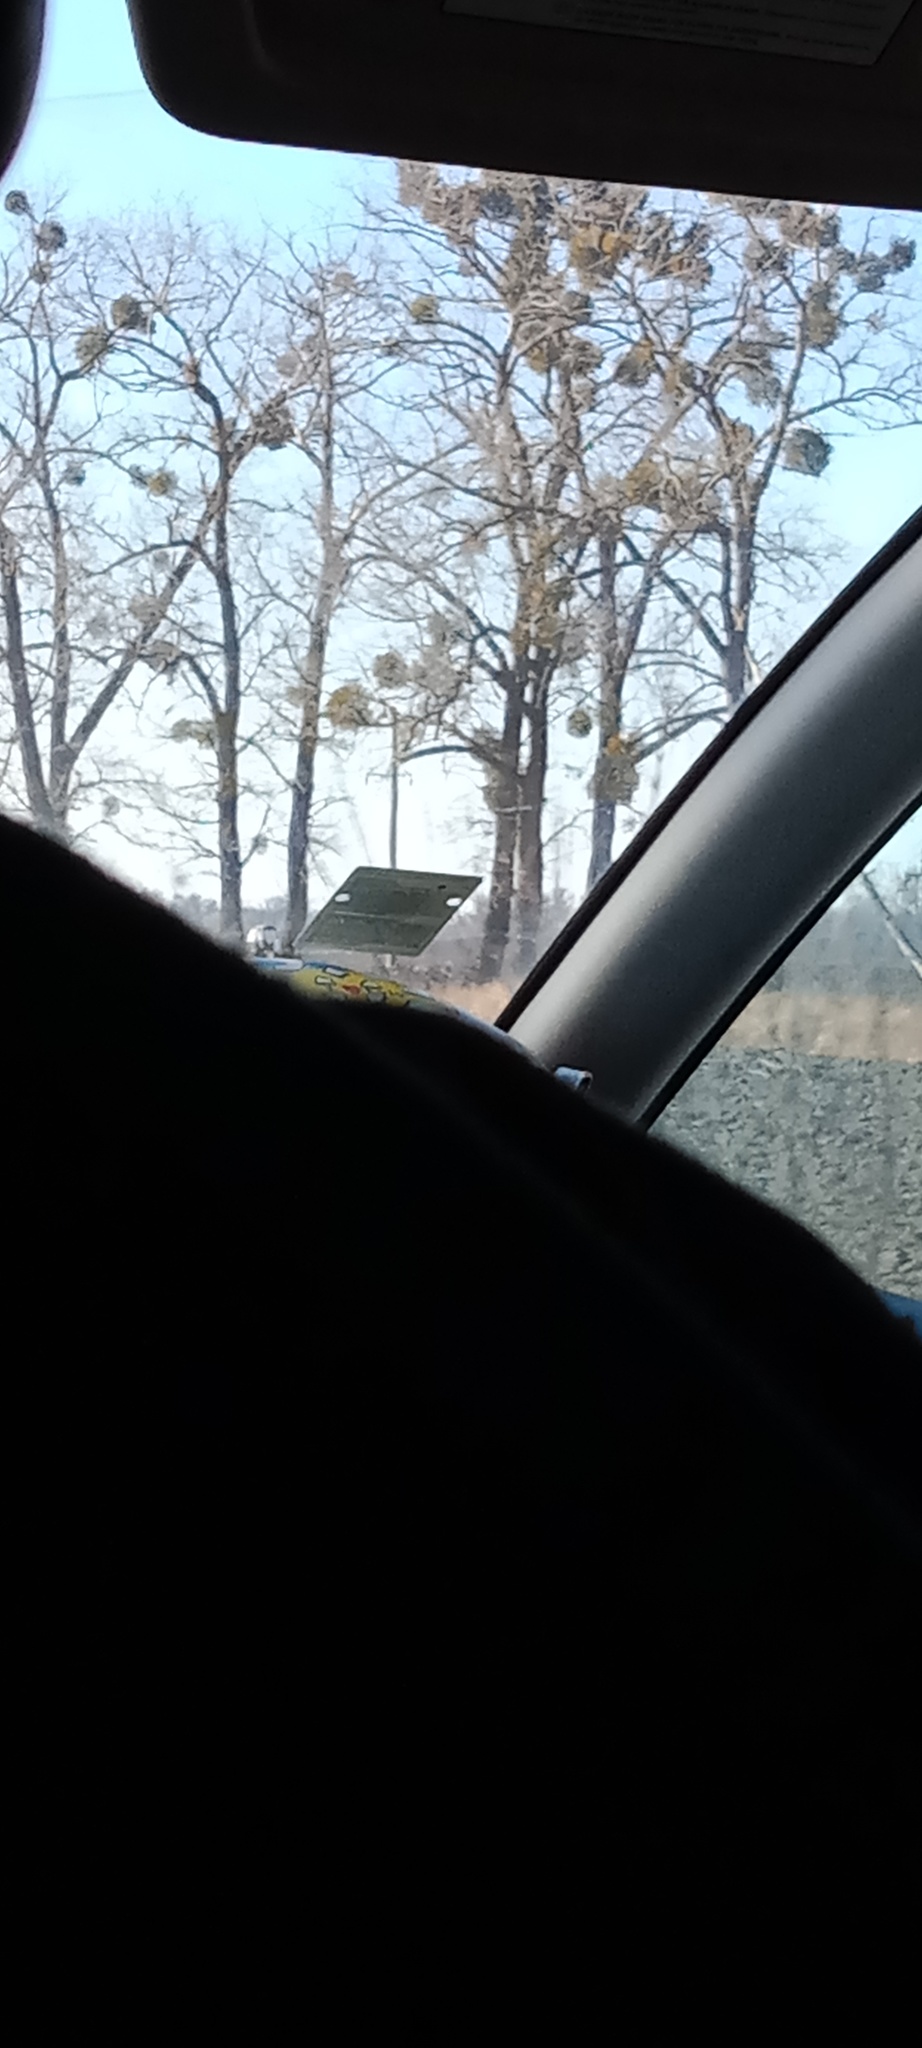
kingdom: Plantae
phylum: Tracheophyta
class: Magnoliopsida
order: Santalales
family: Viscaceae
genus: Viscum
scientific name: Viscum album
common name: Mistletoe
